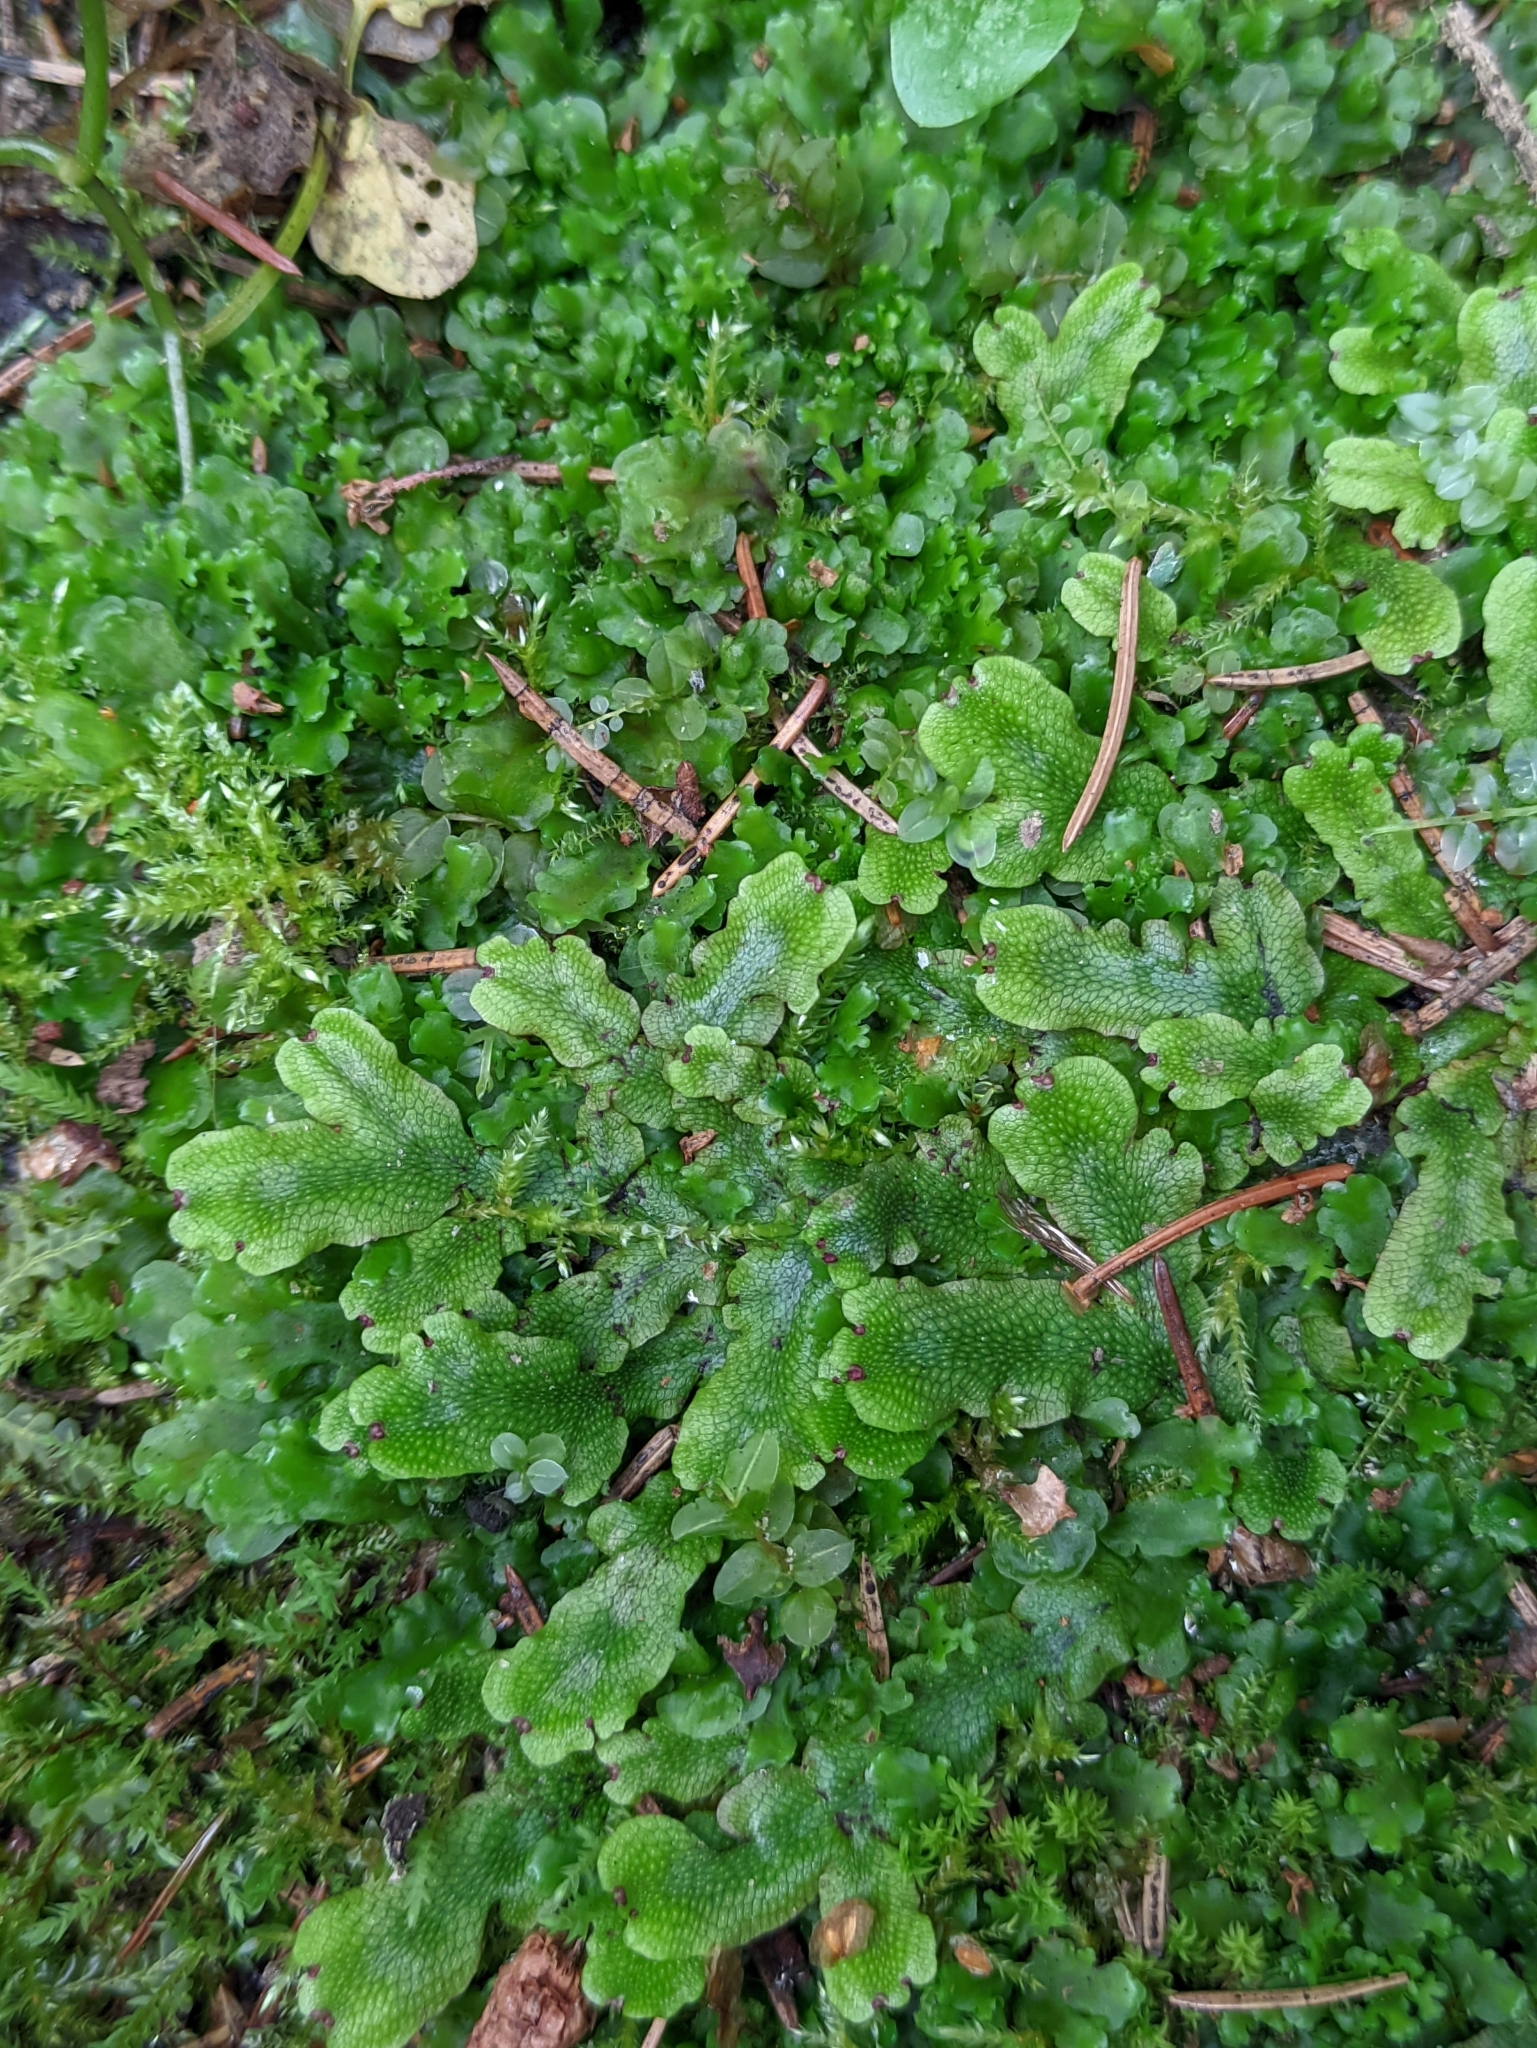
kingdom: Plantae
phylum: Marchantiophyta
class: Marchantiopsida
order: Marchantiales
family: Conocephalaceae
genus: Conocephalum
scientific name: Conocephalum salebrosum
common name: Cat-tongue liverwort
